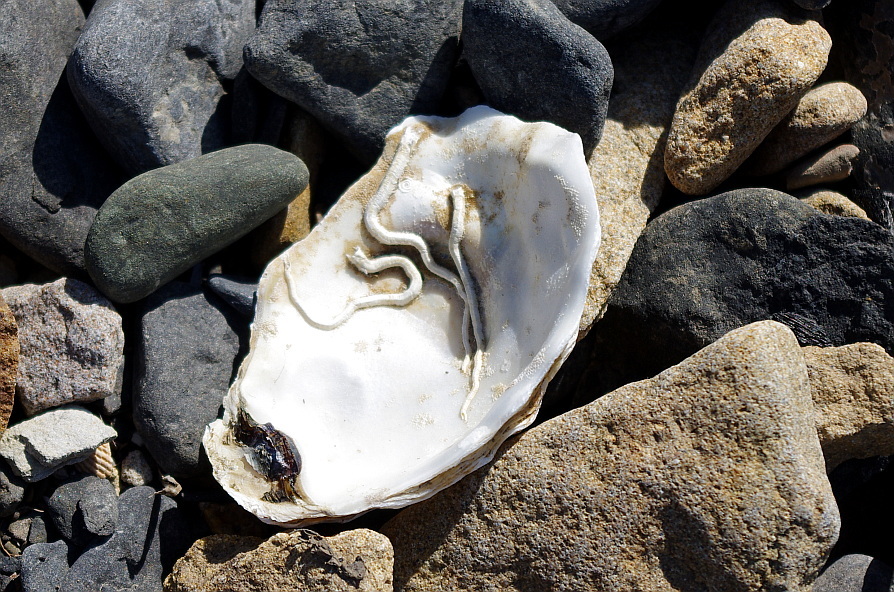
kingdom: Animalia
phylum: Mollusca
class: Bivalvia
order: Ostreida
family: Ostreidae
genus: Magallana
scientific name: Magallana gigas
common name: Pacific oyster
